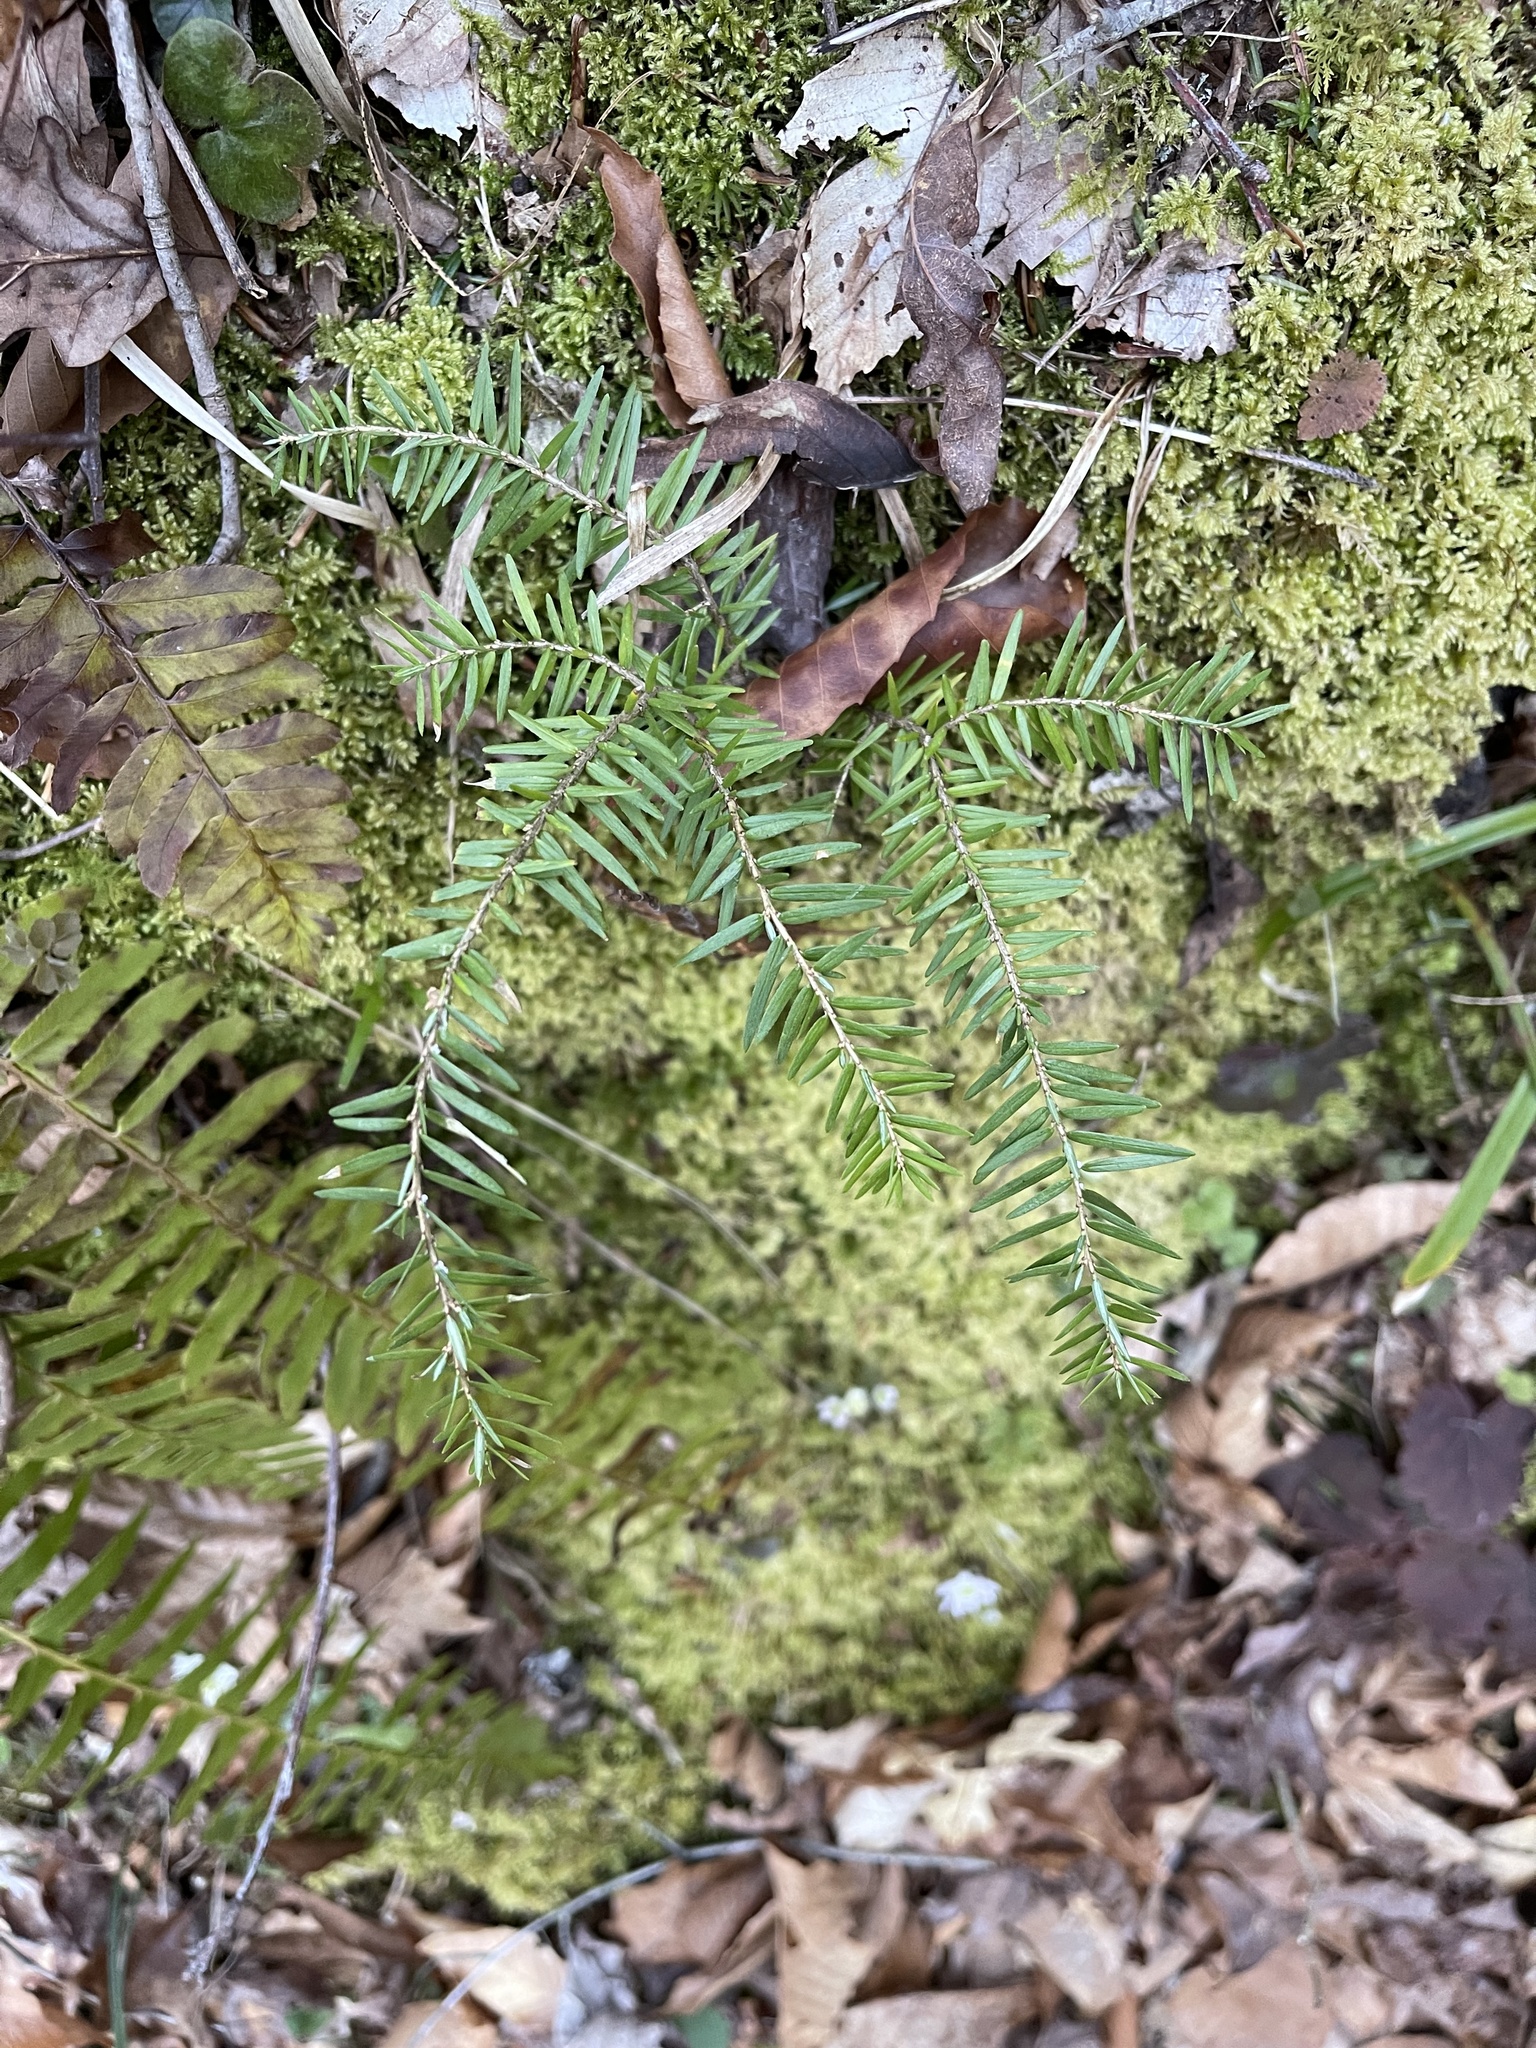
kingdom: Plantae
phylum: Tracheophyta
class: Pinopsida
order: Pinales
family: Pinaceae
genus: Tsuga
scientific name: Tsuga canadensis
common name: Eastern hemlock
